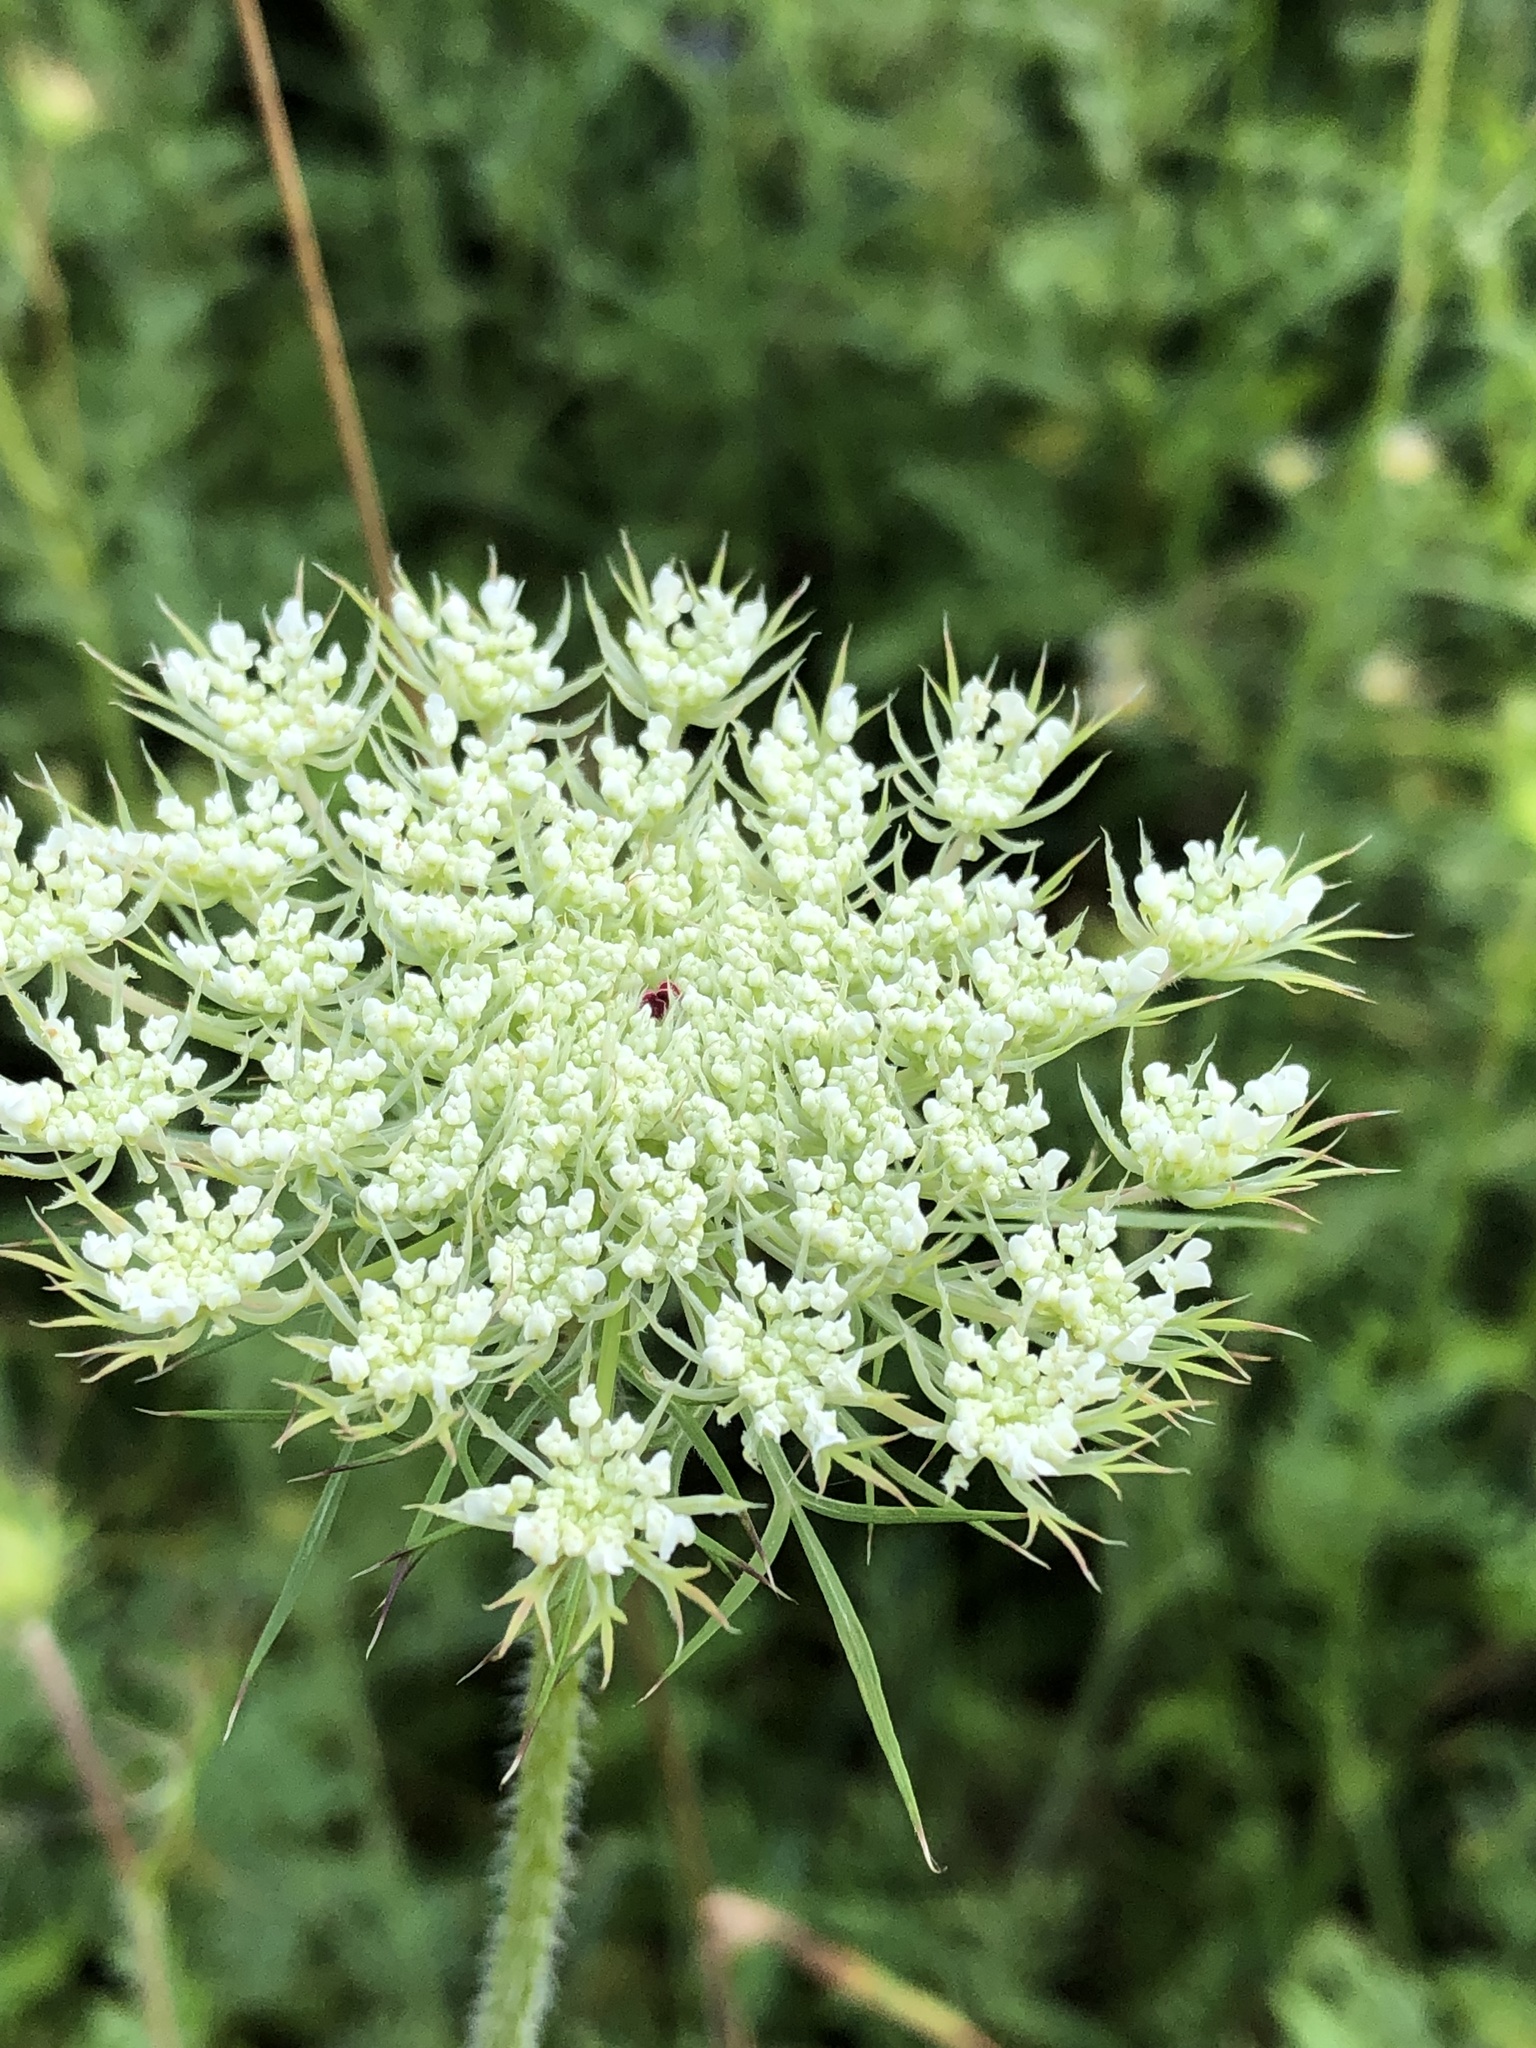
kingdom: Plantae
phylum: Tracheophyta
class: Magnoliopsida
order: Apiales
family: Apiaceae
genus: Daucus
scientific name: Daucus carota
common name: Wild carrot
